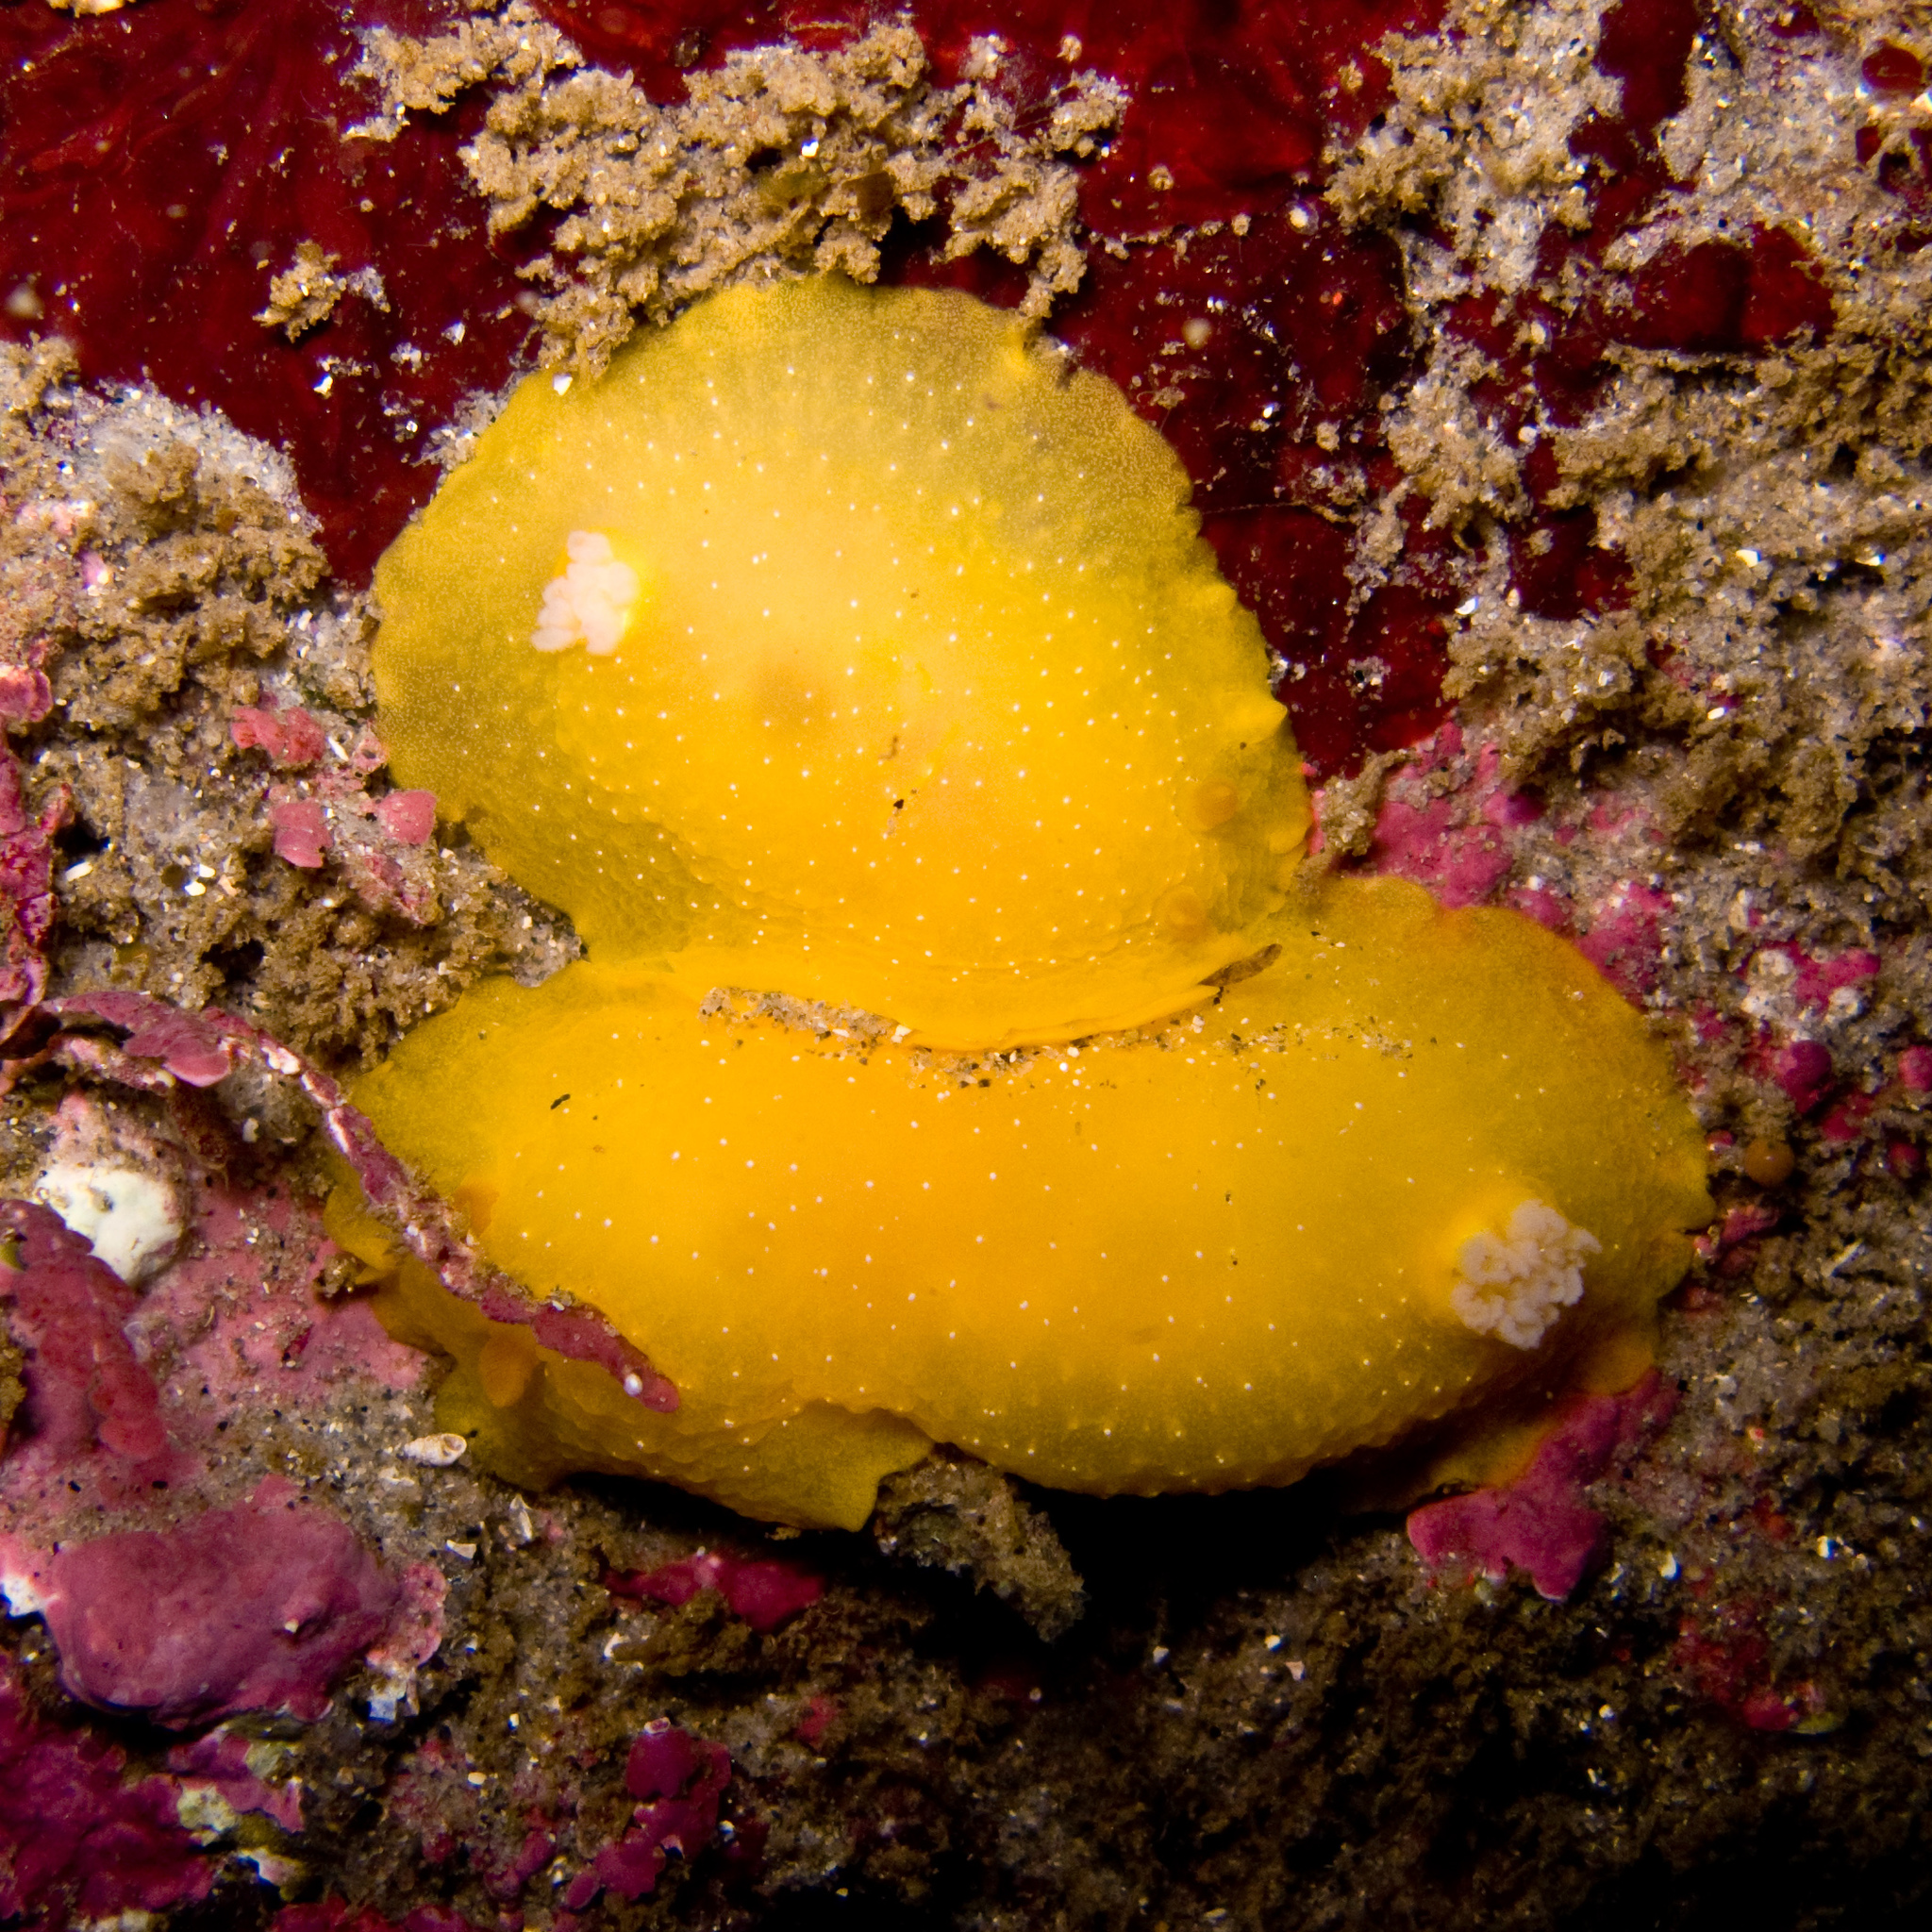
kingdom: Animalia
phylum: Mollusca
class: Gastropoda
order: Nudibranchia
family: Dendrodorididae
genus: Doriopsilla
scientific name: Doriopsilla fulva
